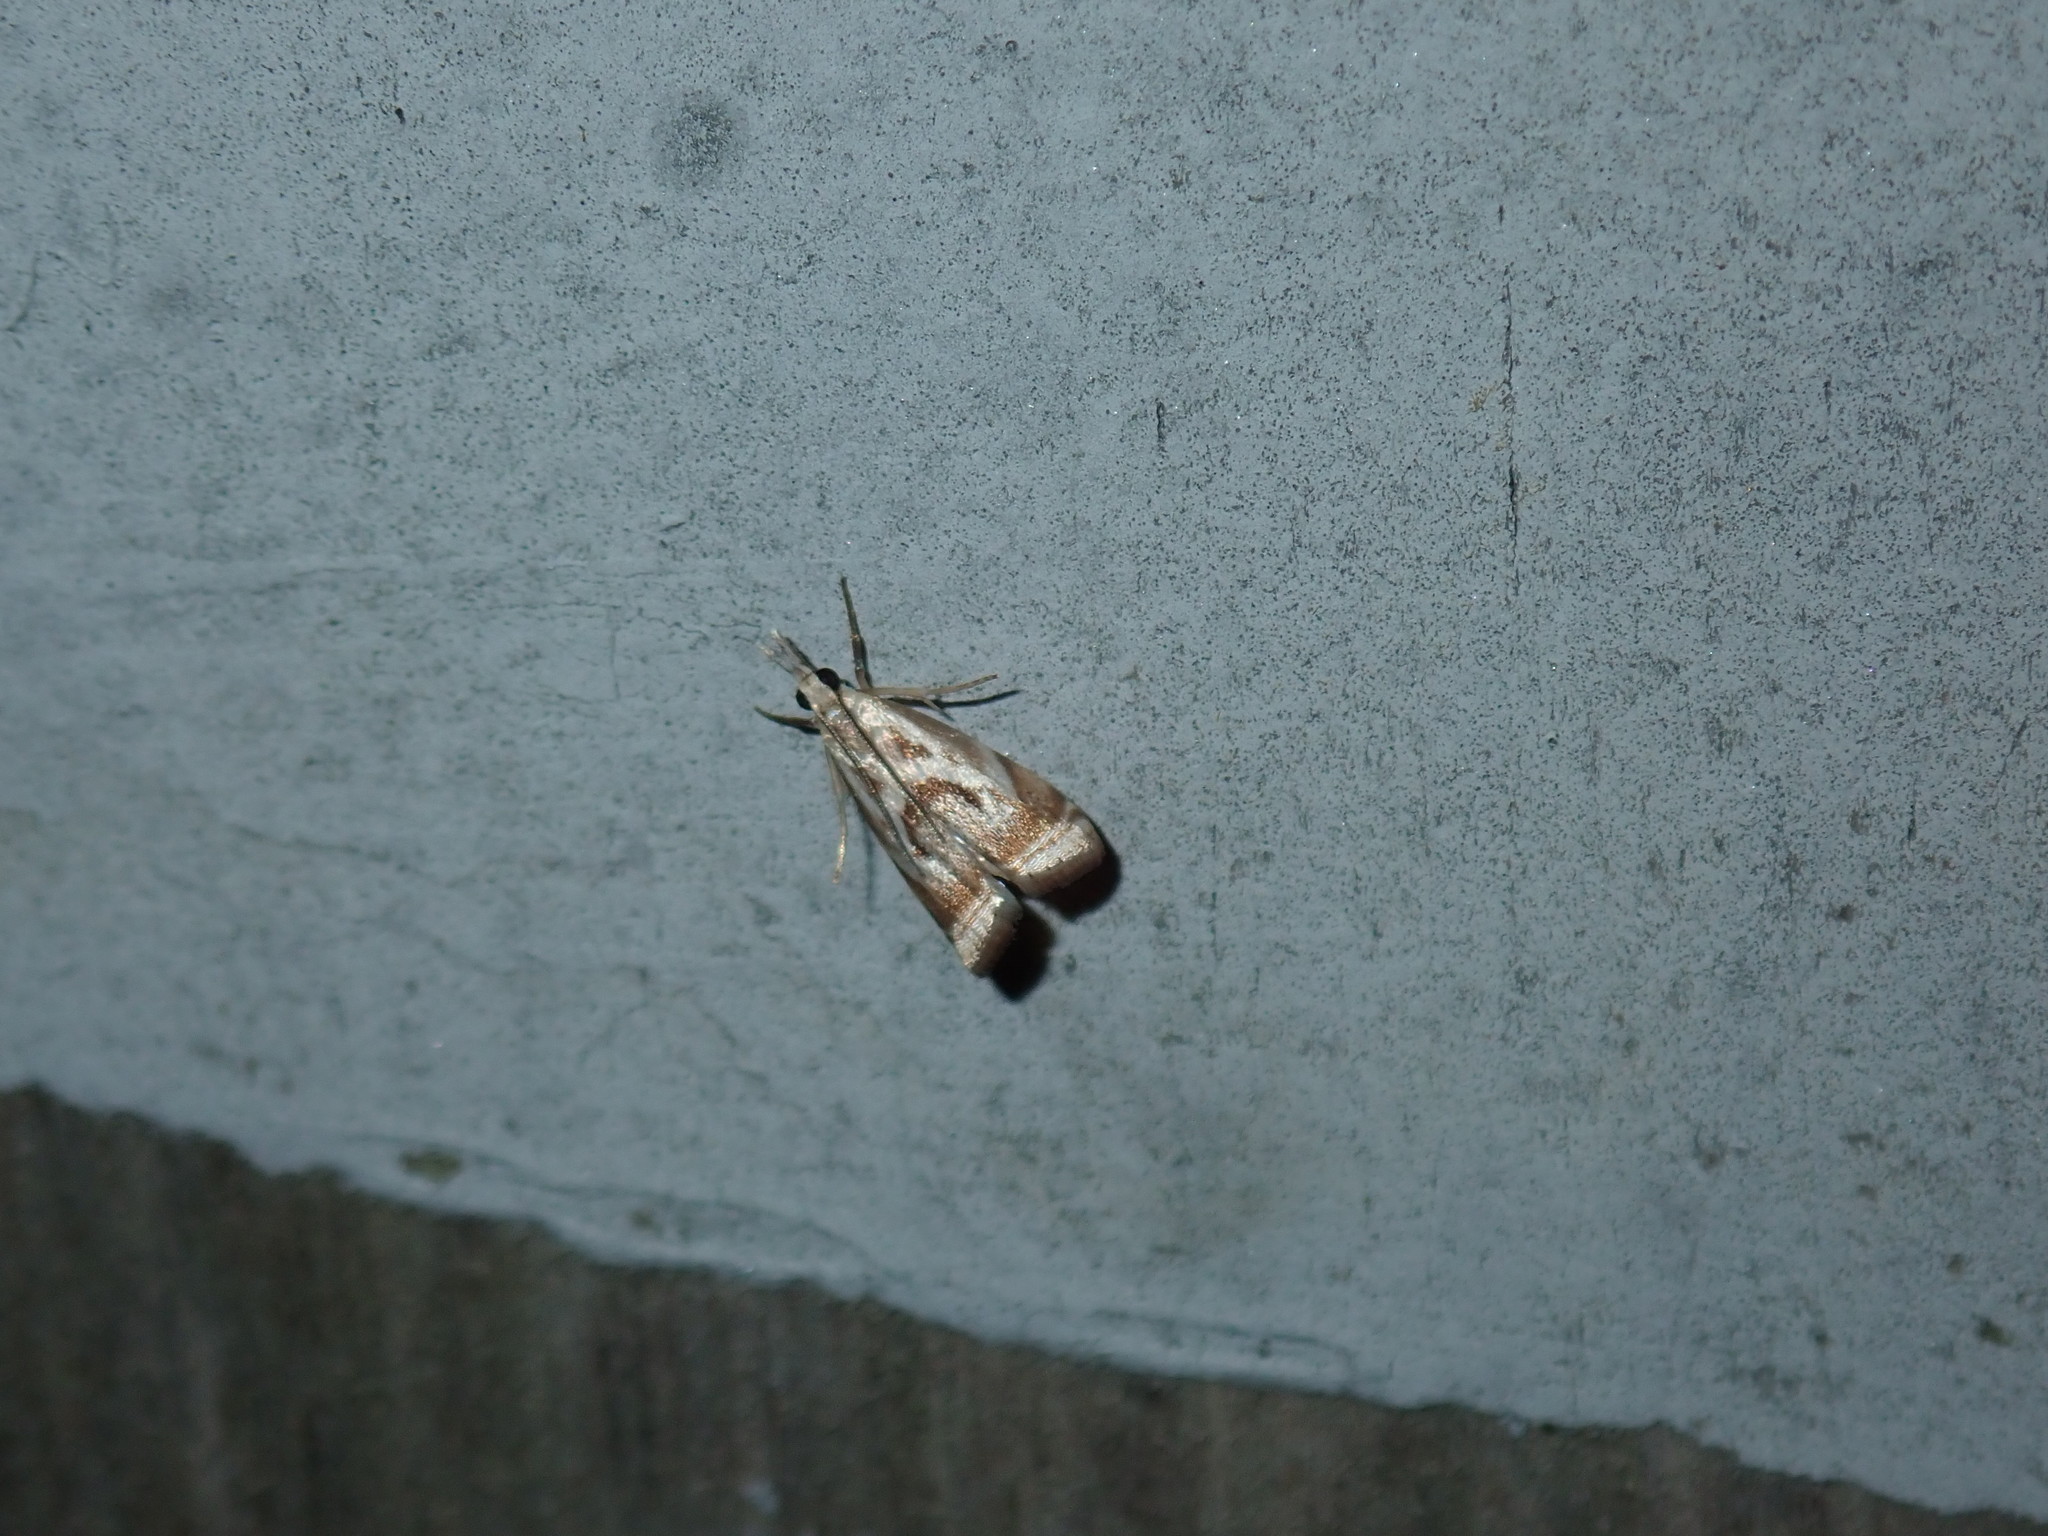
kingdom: Animalia
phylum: Arthropoda
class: Insecta
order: Lepidoptera
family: Crambidae
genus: Microcrambus
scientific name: Microcrambus elegans
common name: Elegant grass-veneer
